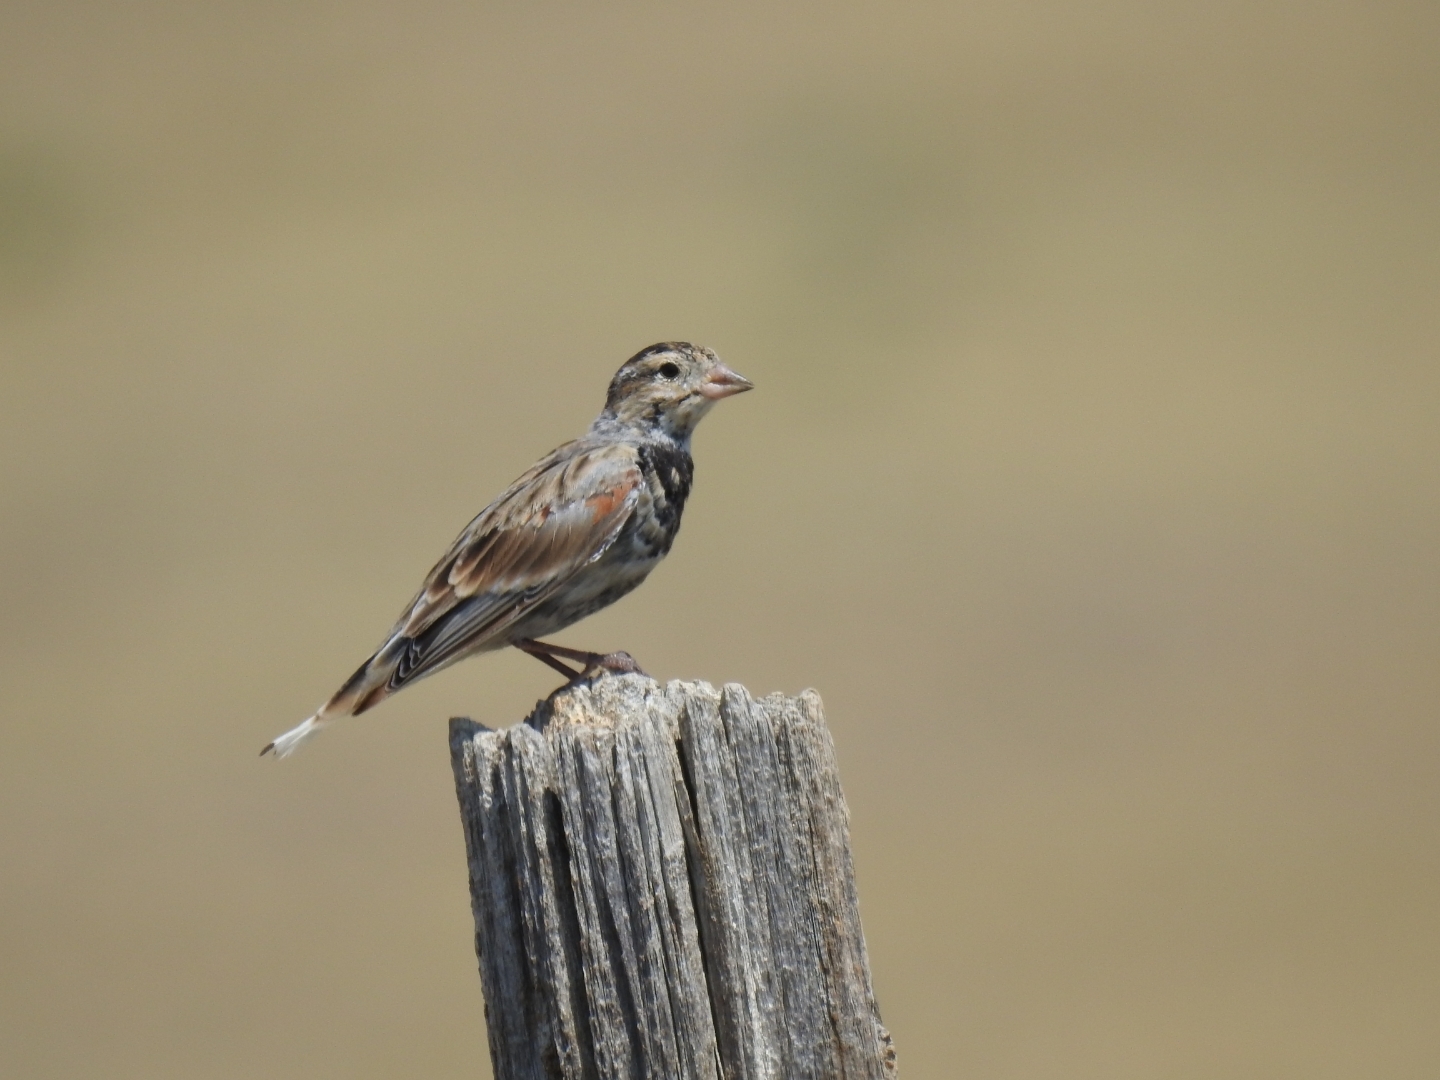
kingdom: Animalia
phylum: Chordata
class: Aves
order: Passeriformes
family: Calcariidae
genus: Rhynchophanes
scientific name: Rhynchophanes mccownii
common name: Mccown's longspur
